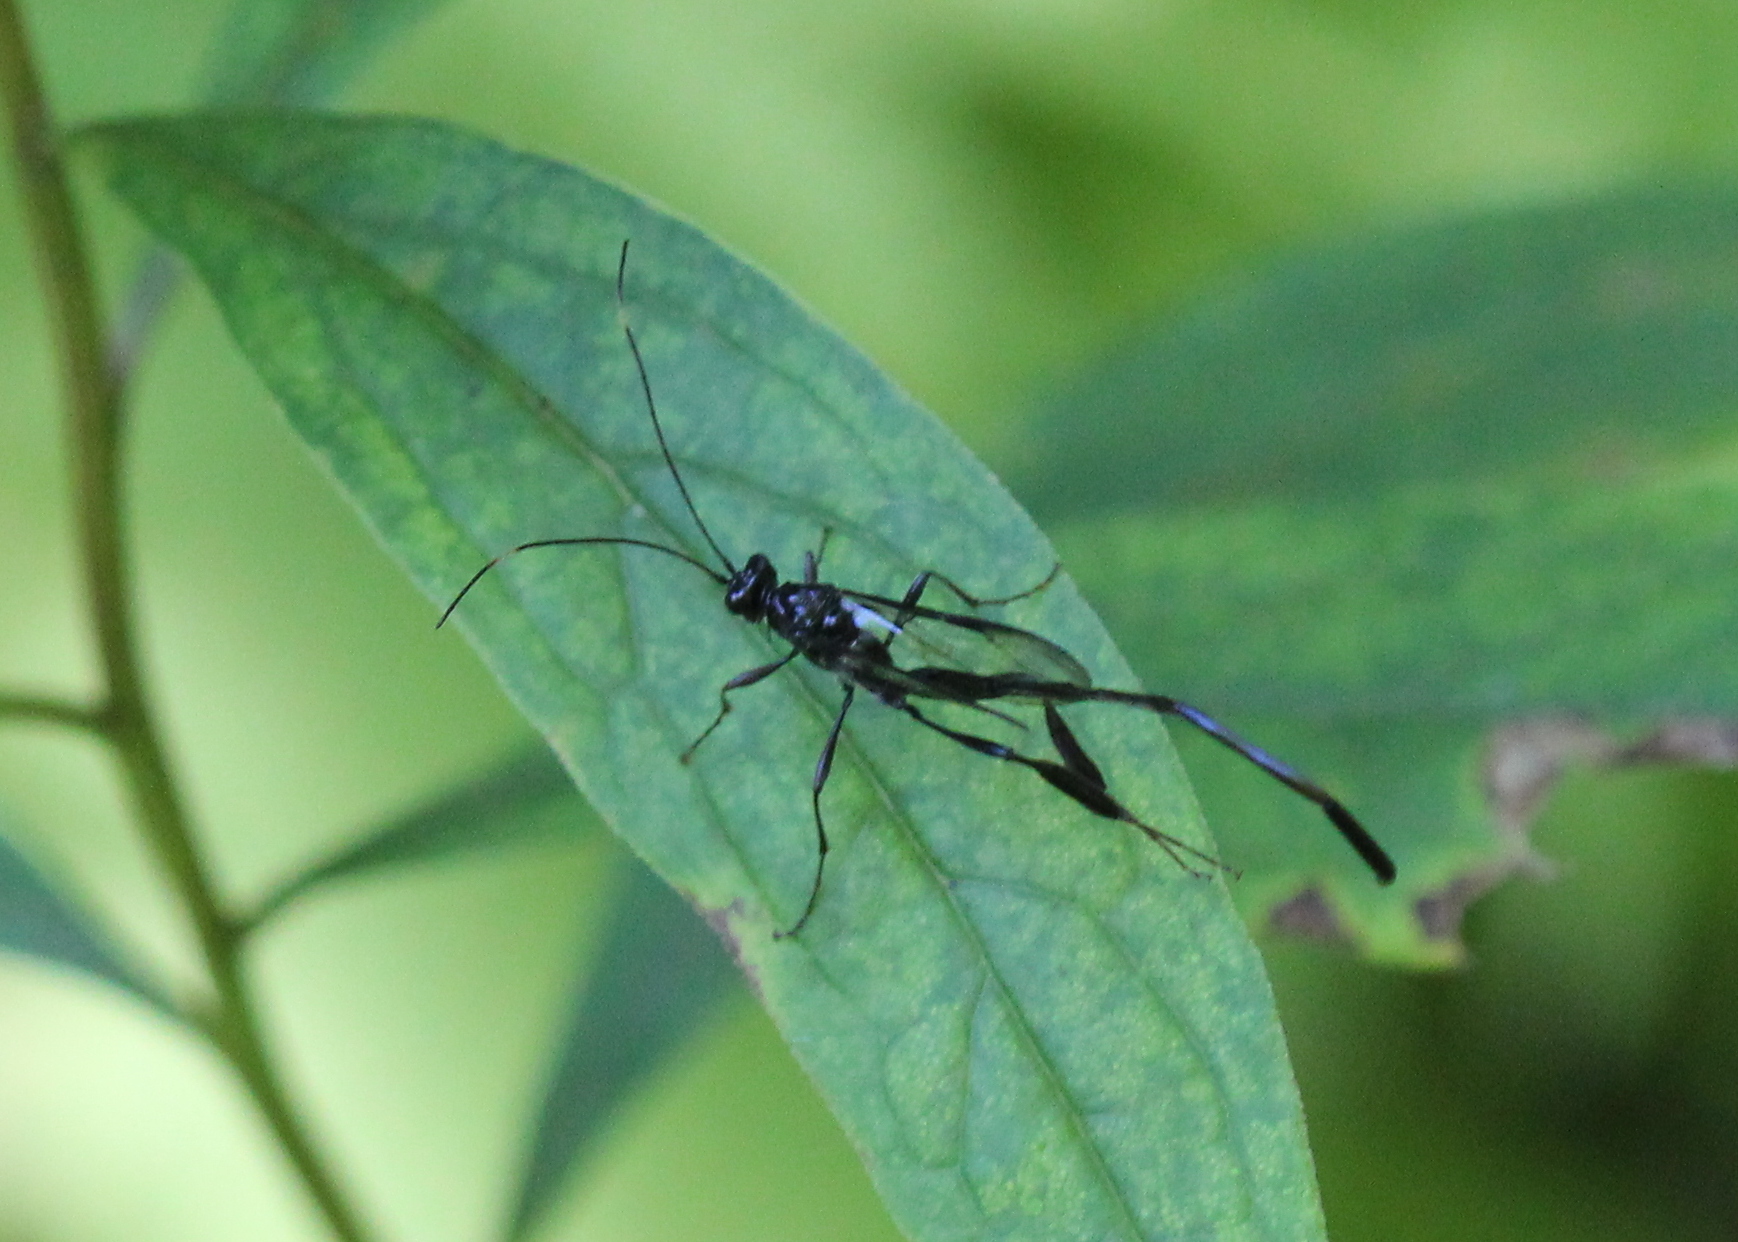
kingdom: Animalia
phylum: Arthropoda
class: Insecta
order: Hymenoptera
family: Pelecinidae
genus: Pelecinus
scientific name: Pelecinus polyturator
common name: American pelecinid wasp
